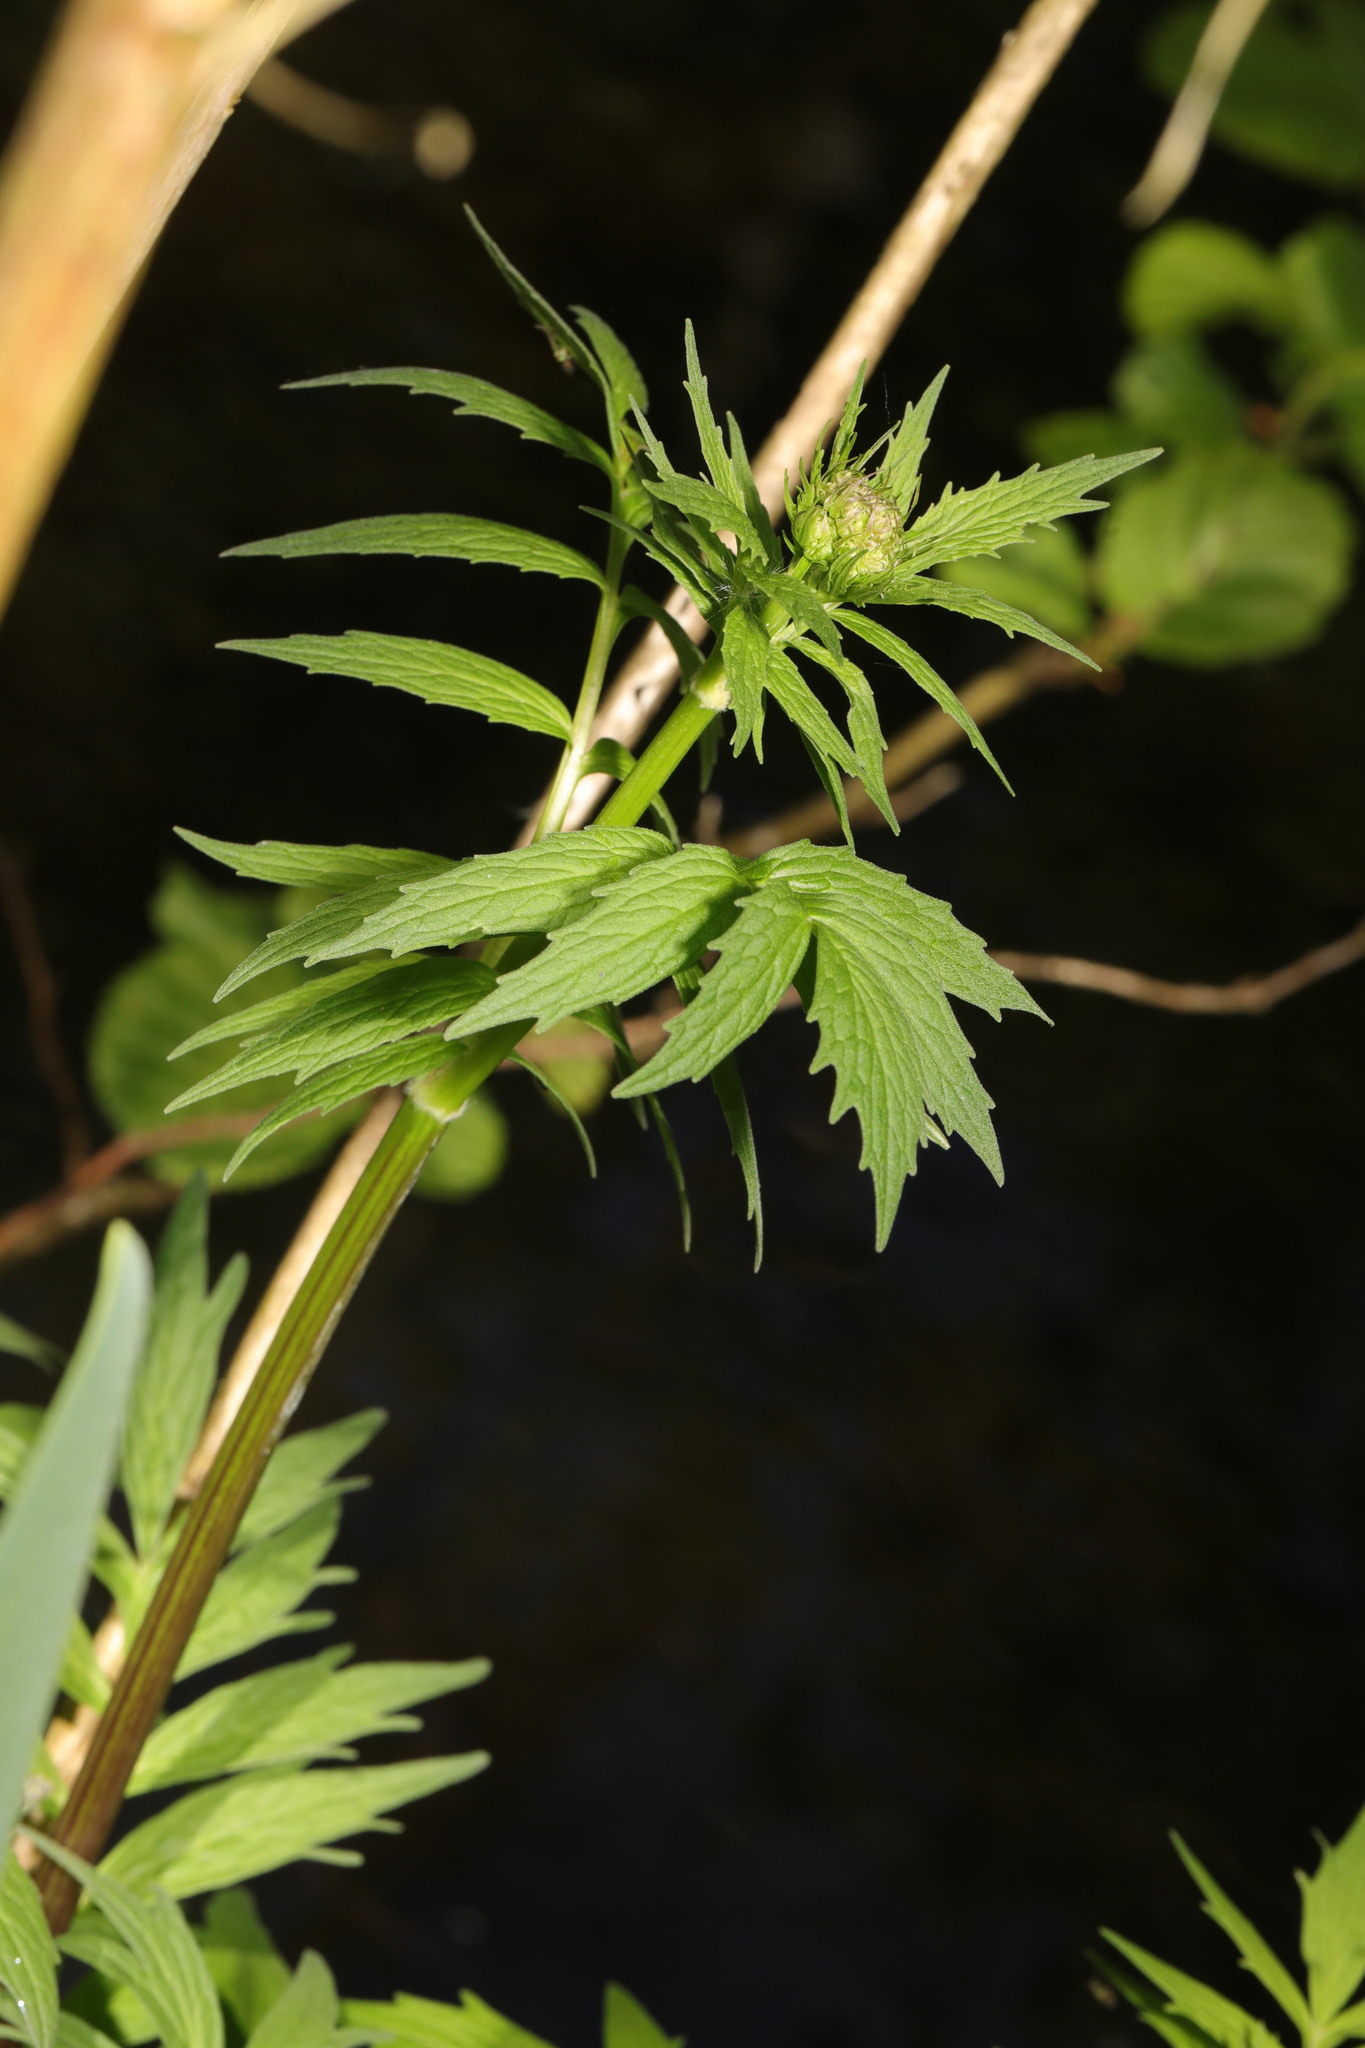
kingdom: Plantae
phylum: Tracheophyta
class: Magnoliopsida
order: Dipsacales
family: Caprifoliaceae
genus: Valeriana
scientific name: Valeriana officinalis
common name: Common valerian
